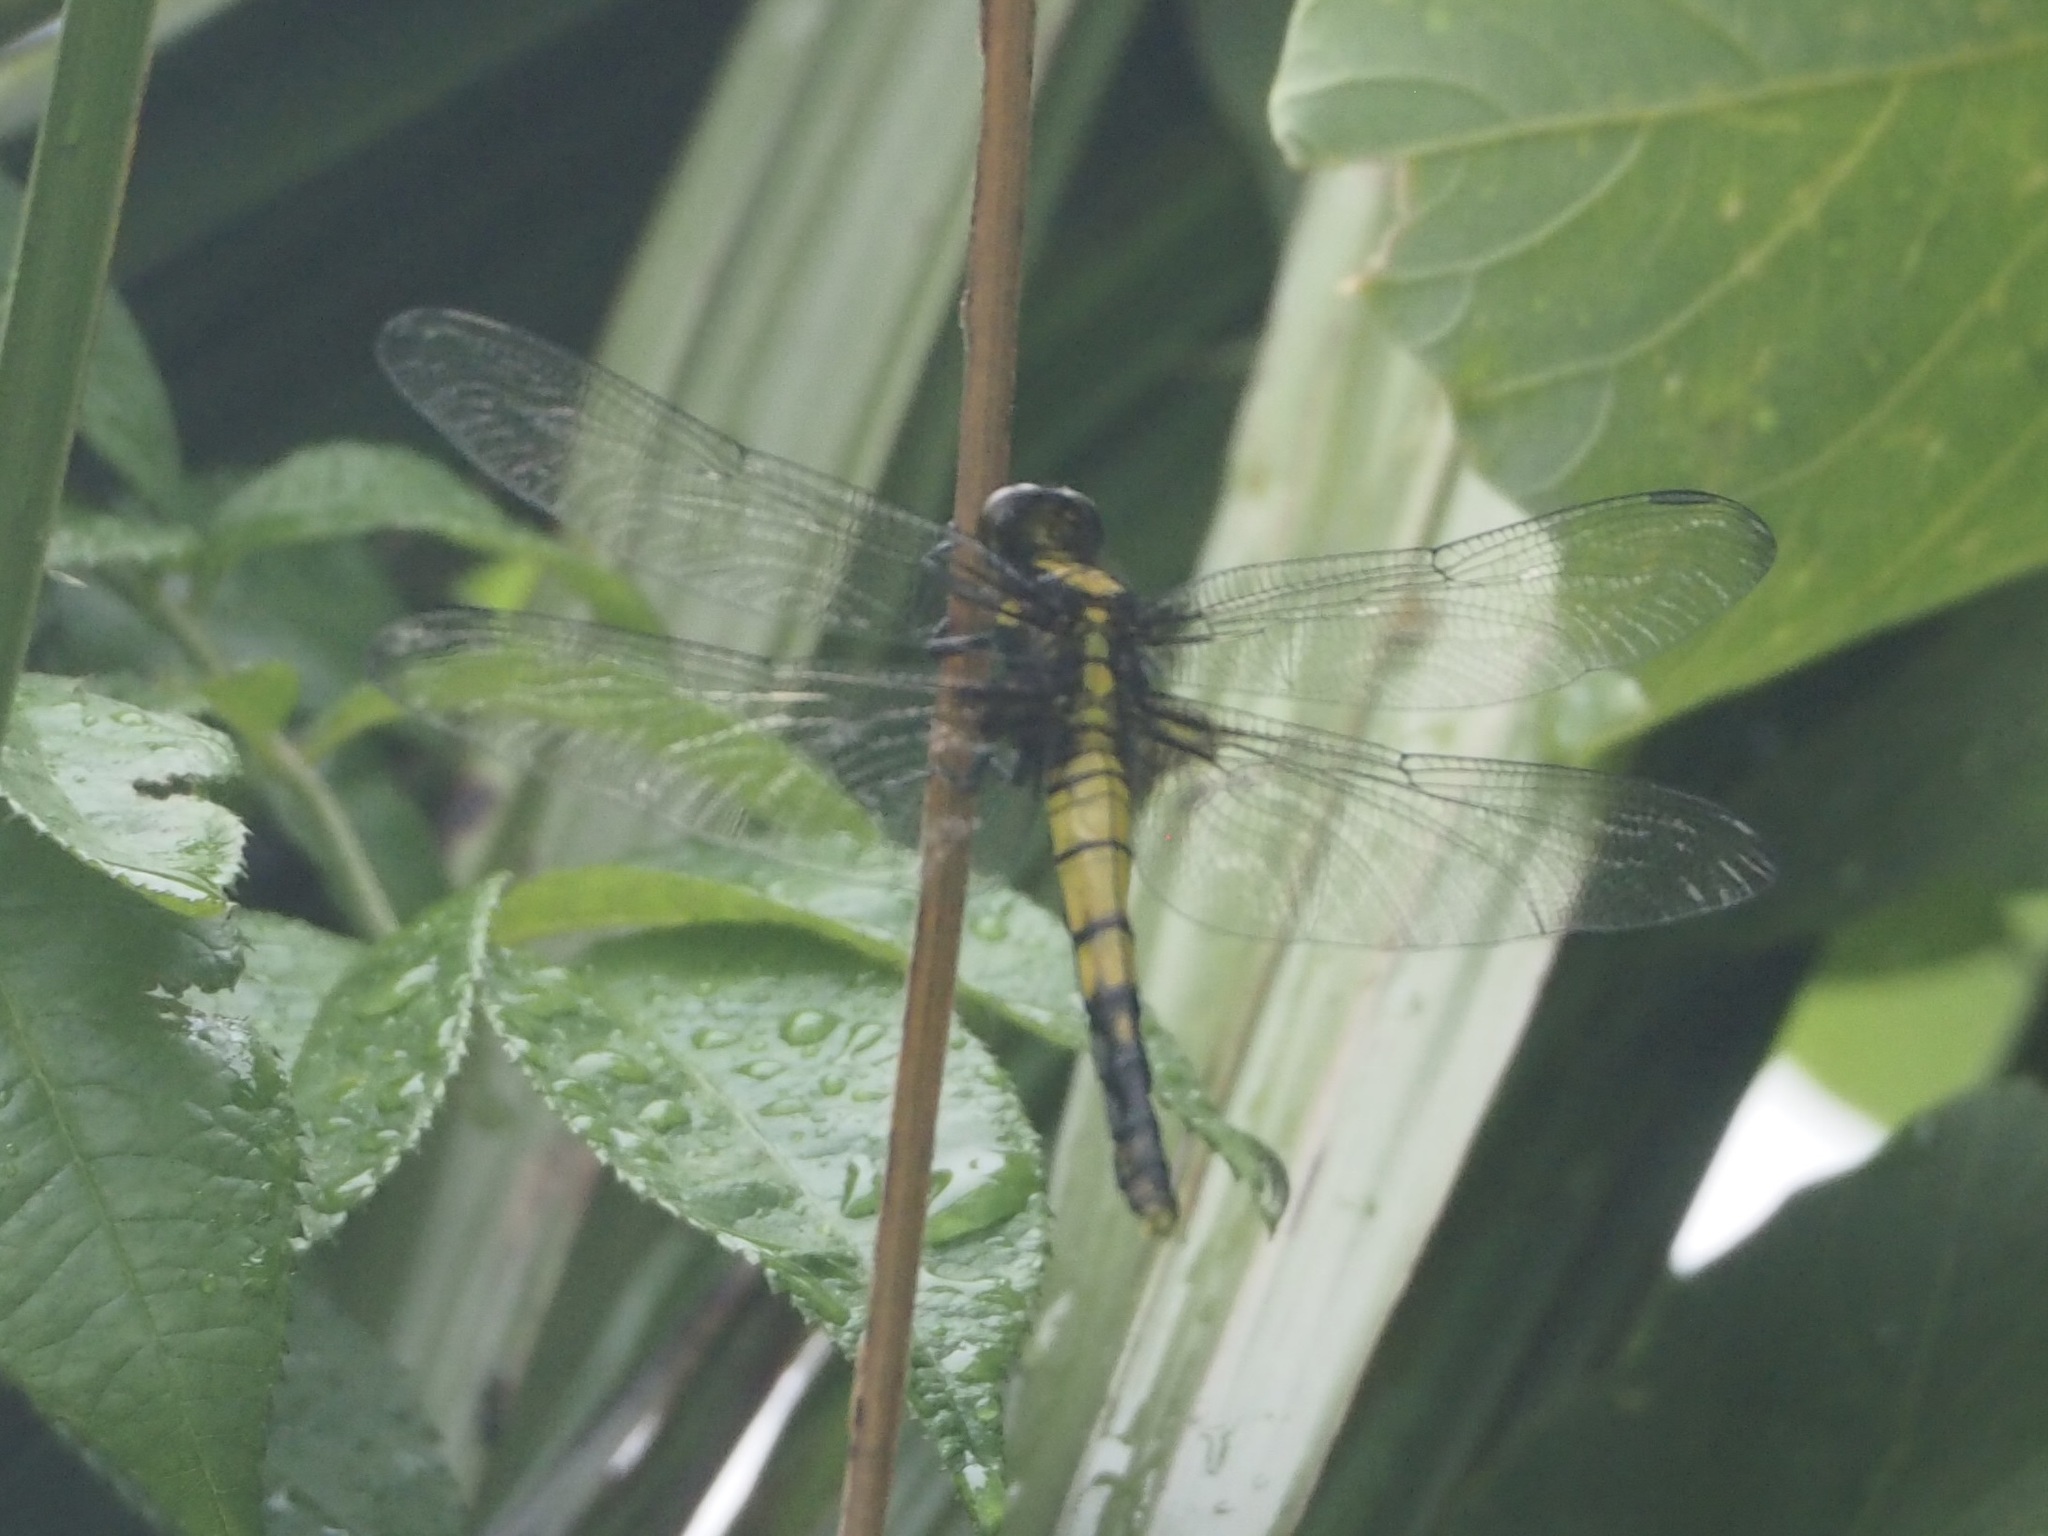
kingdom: Animalia
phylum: Arthropoda
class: Insecta
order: Odonata
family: Libellulidae
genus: Orthetrum
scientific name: Orthetrum melania
